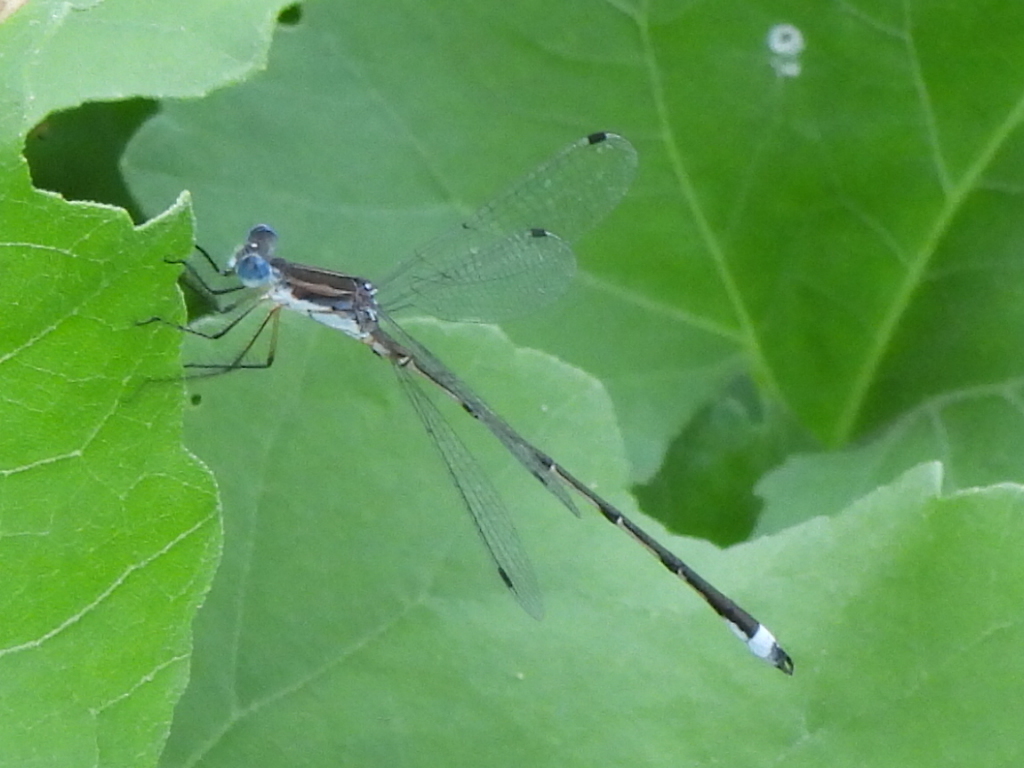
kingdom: Animalia
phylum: Arthropoda
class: Insecta
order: Odonata
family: Lestidae
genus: Lestes
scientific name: Lestes australis
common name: Southern spreadwing
